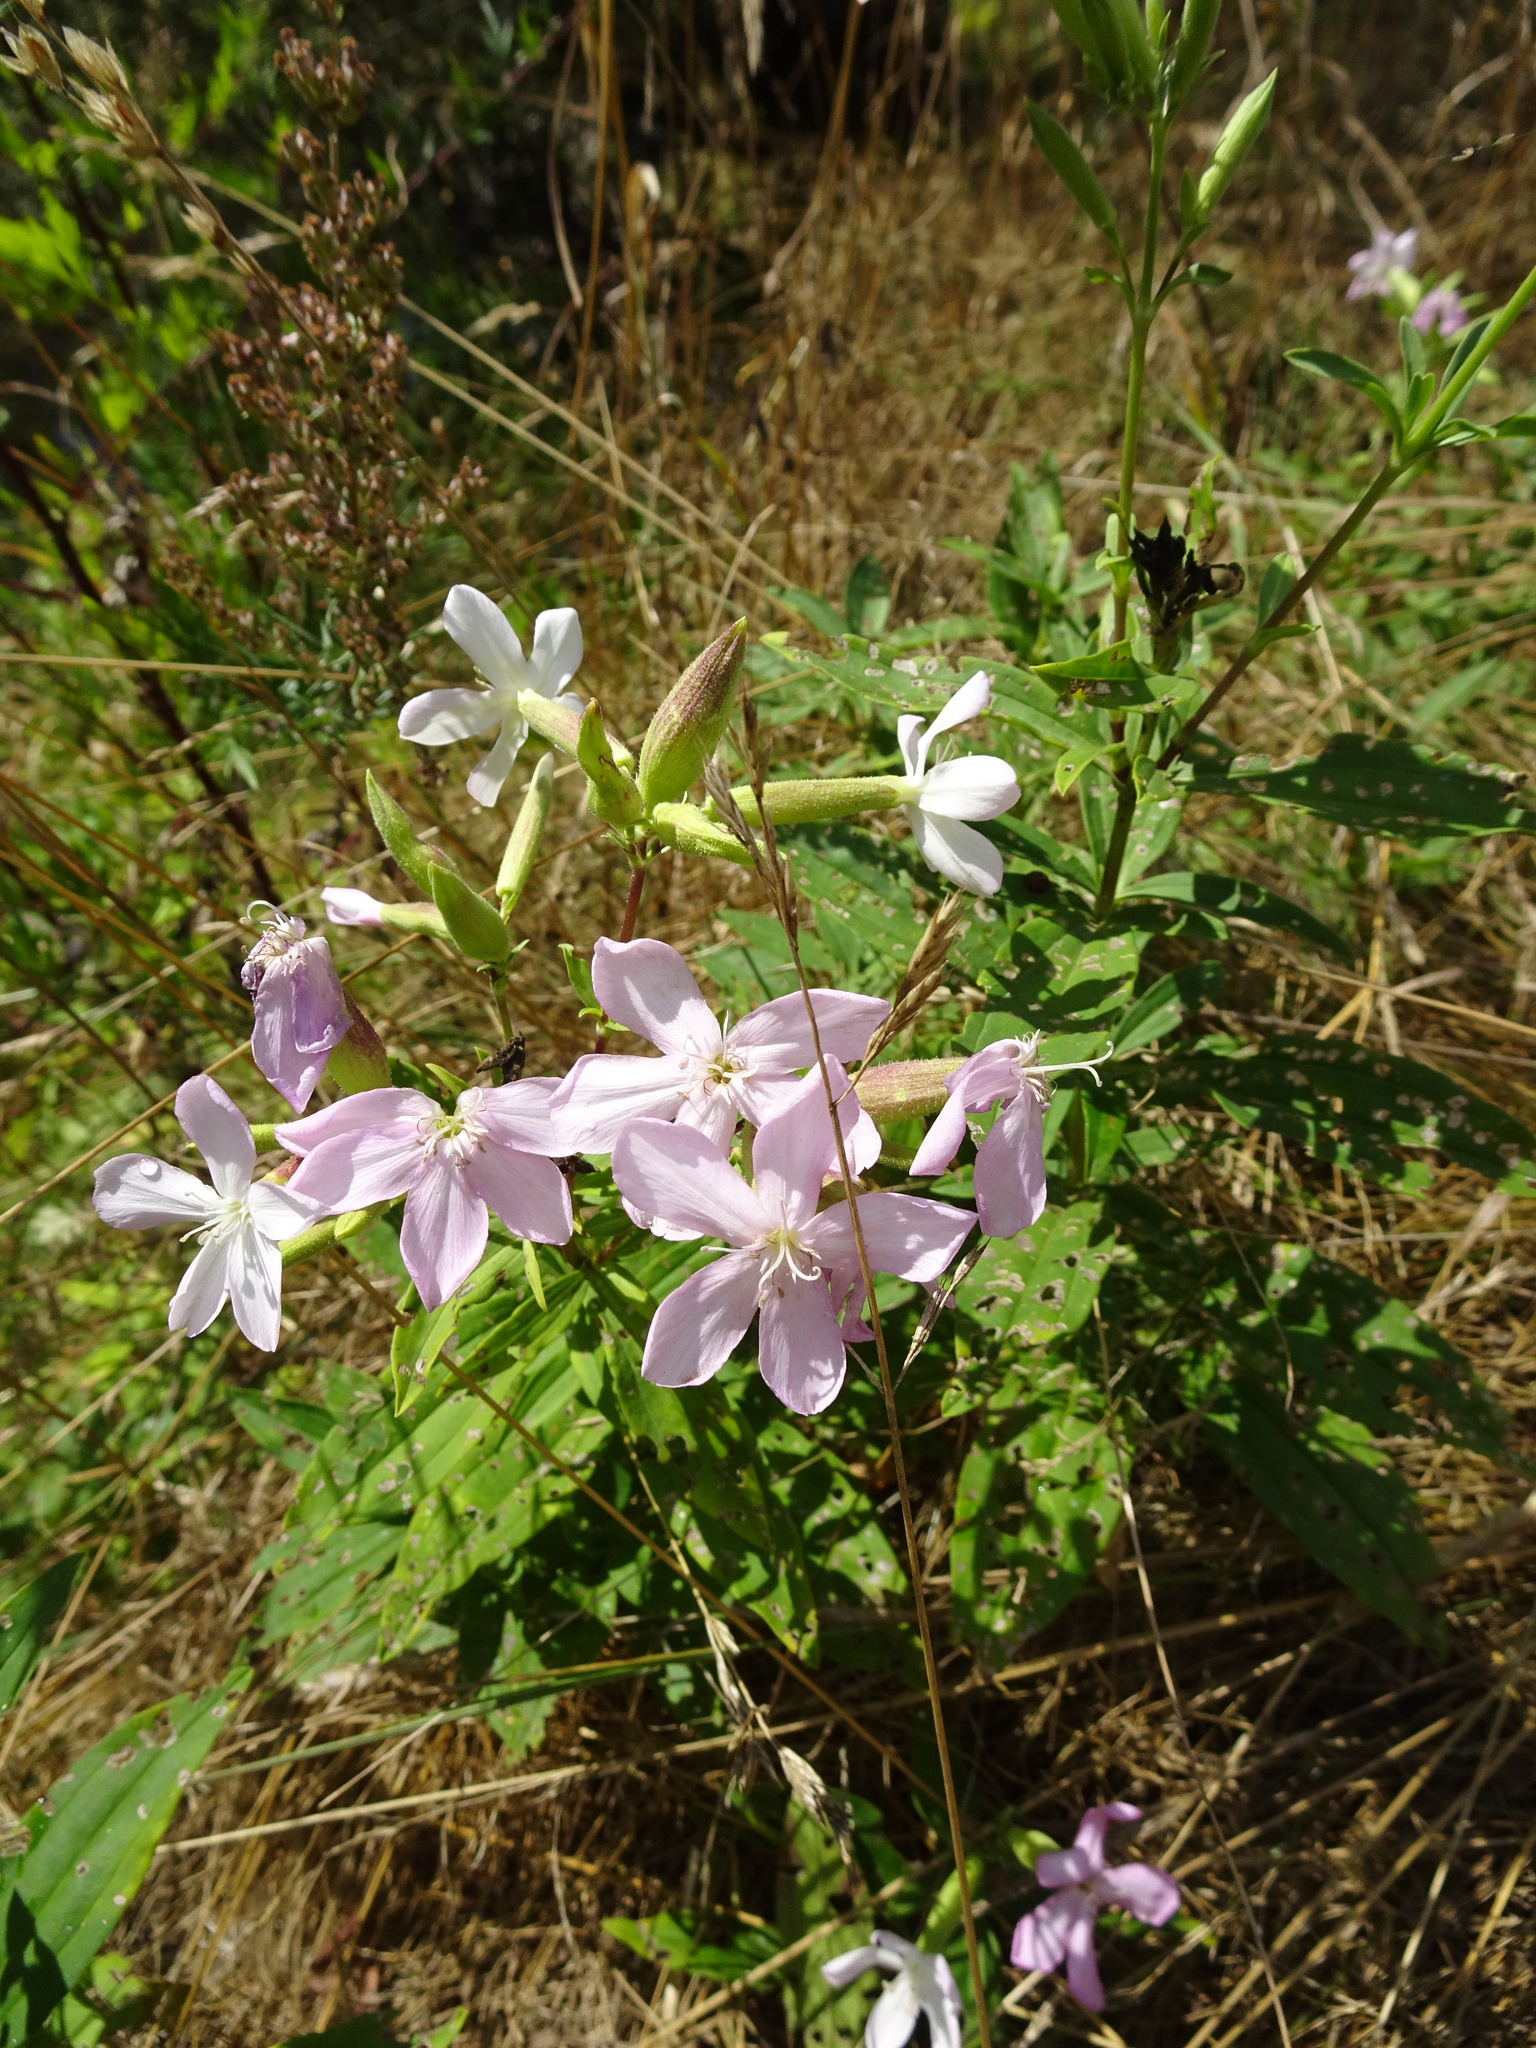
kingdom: Plantae
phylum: Tracheophyta
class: Magnoliopsida
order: Caryophyllales
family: Caryophyllaceae
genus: Saponaria
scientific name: Saponaria officinalis
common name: Soapwort
